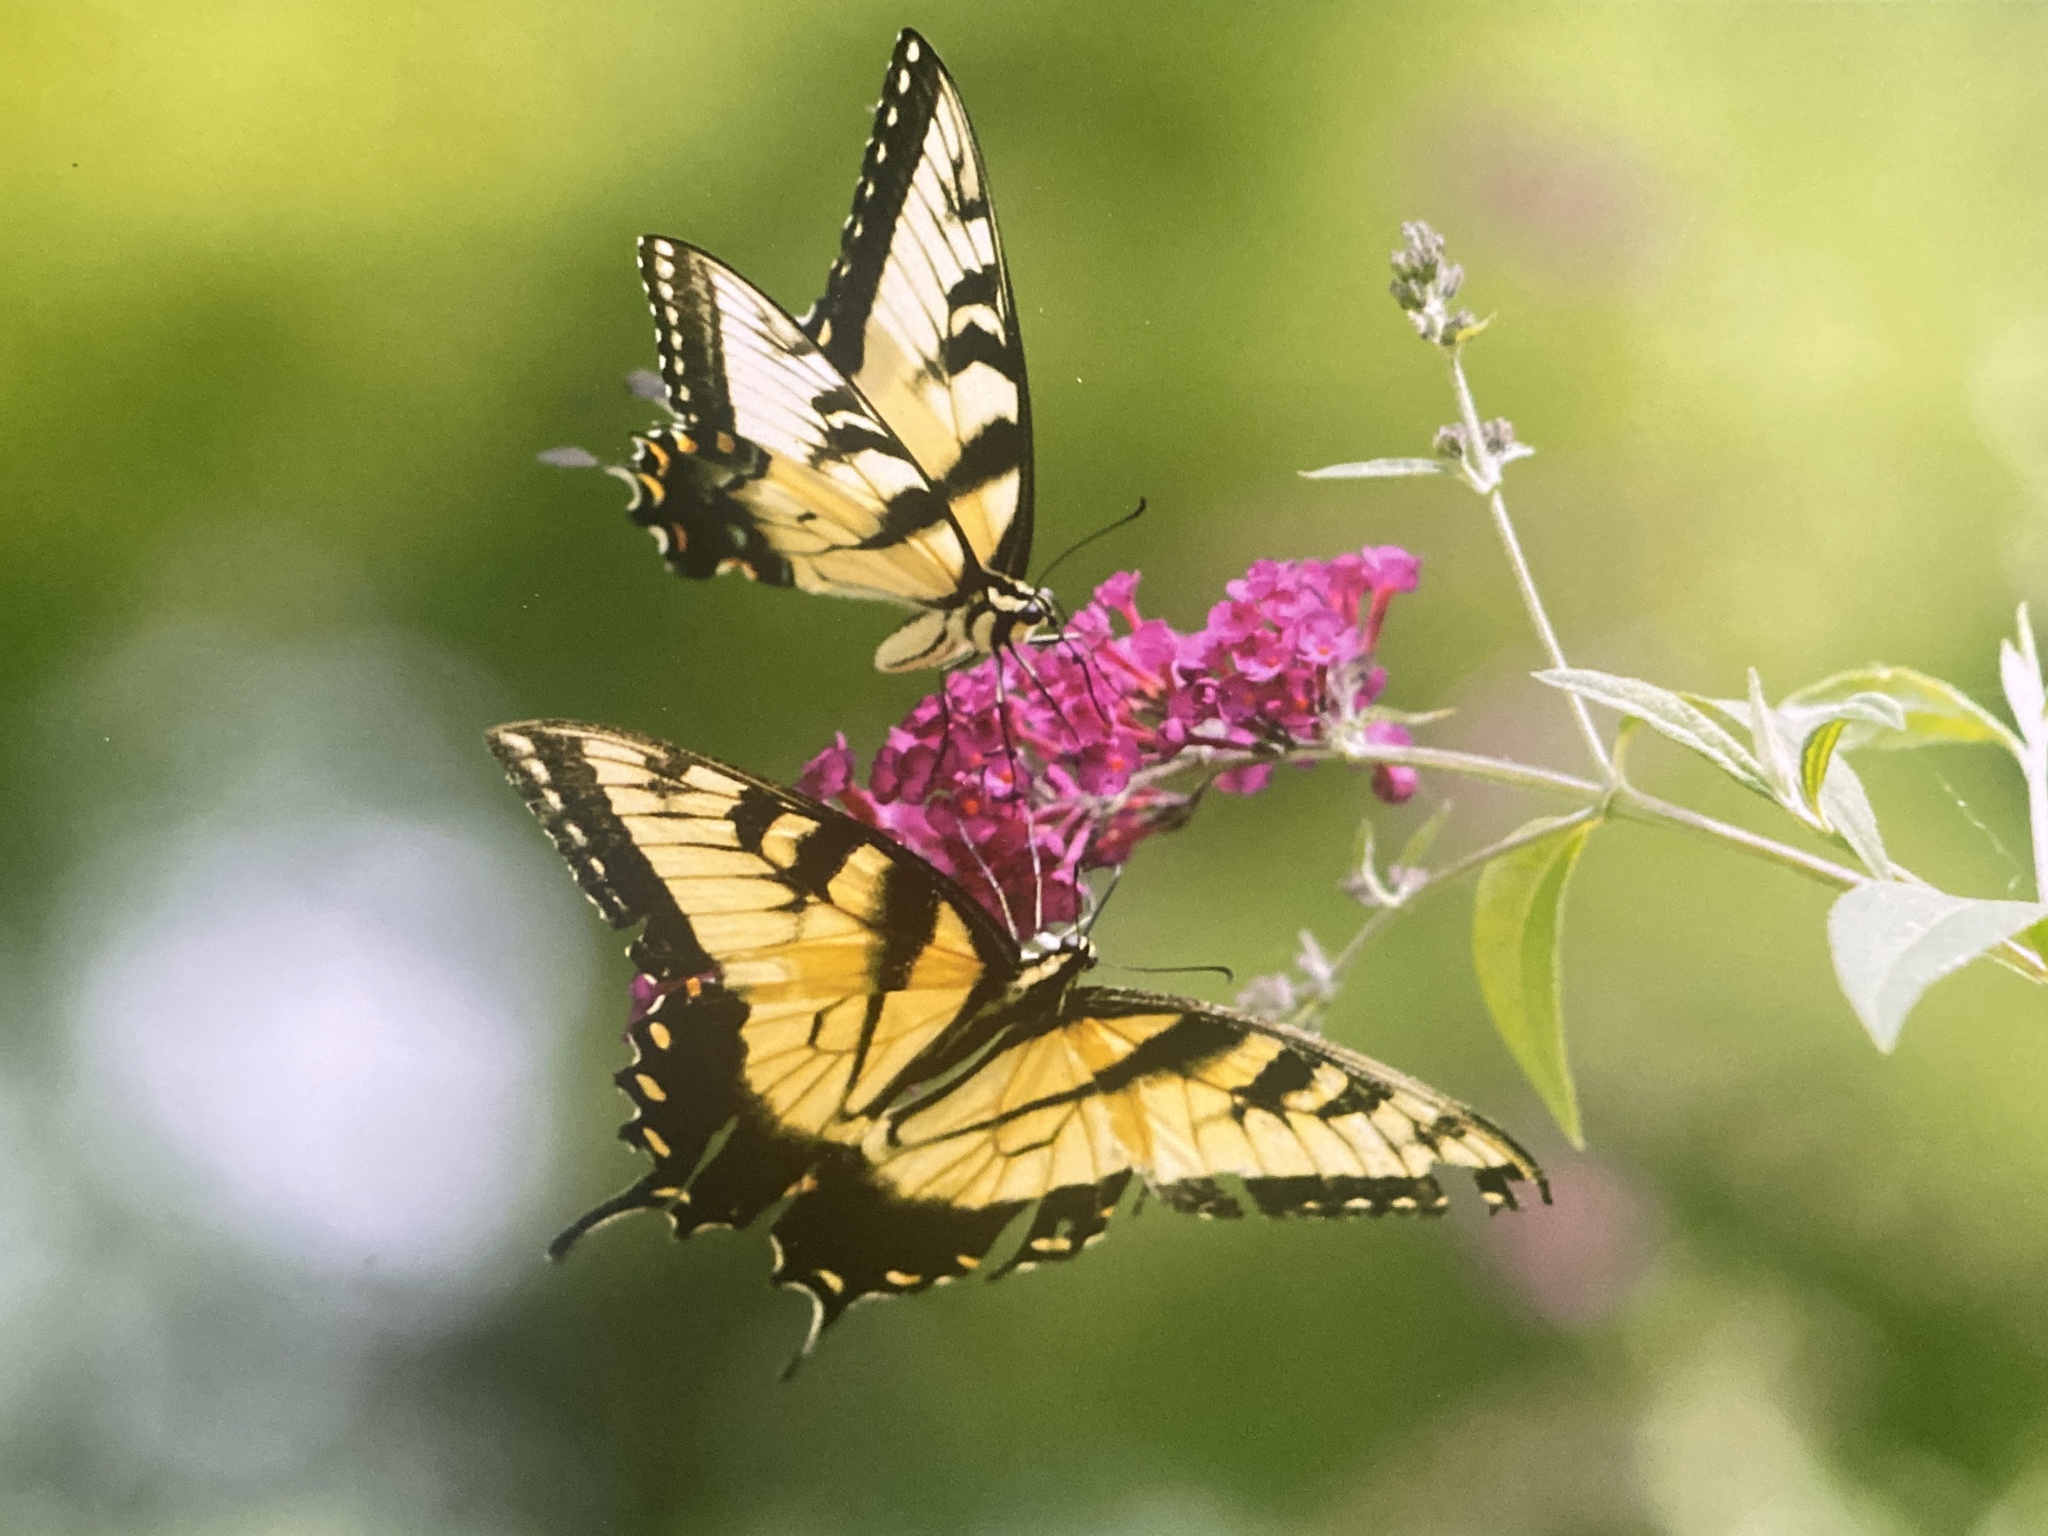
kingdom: Animalia
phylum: Arthropoda
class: Insecta
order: Lepidoptera
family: Papilionidae
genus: Papilio
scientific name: Papilio glaucus
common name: Tiger swallowtail
